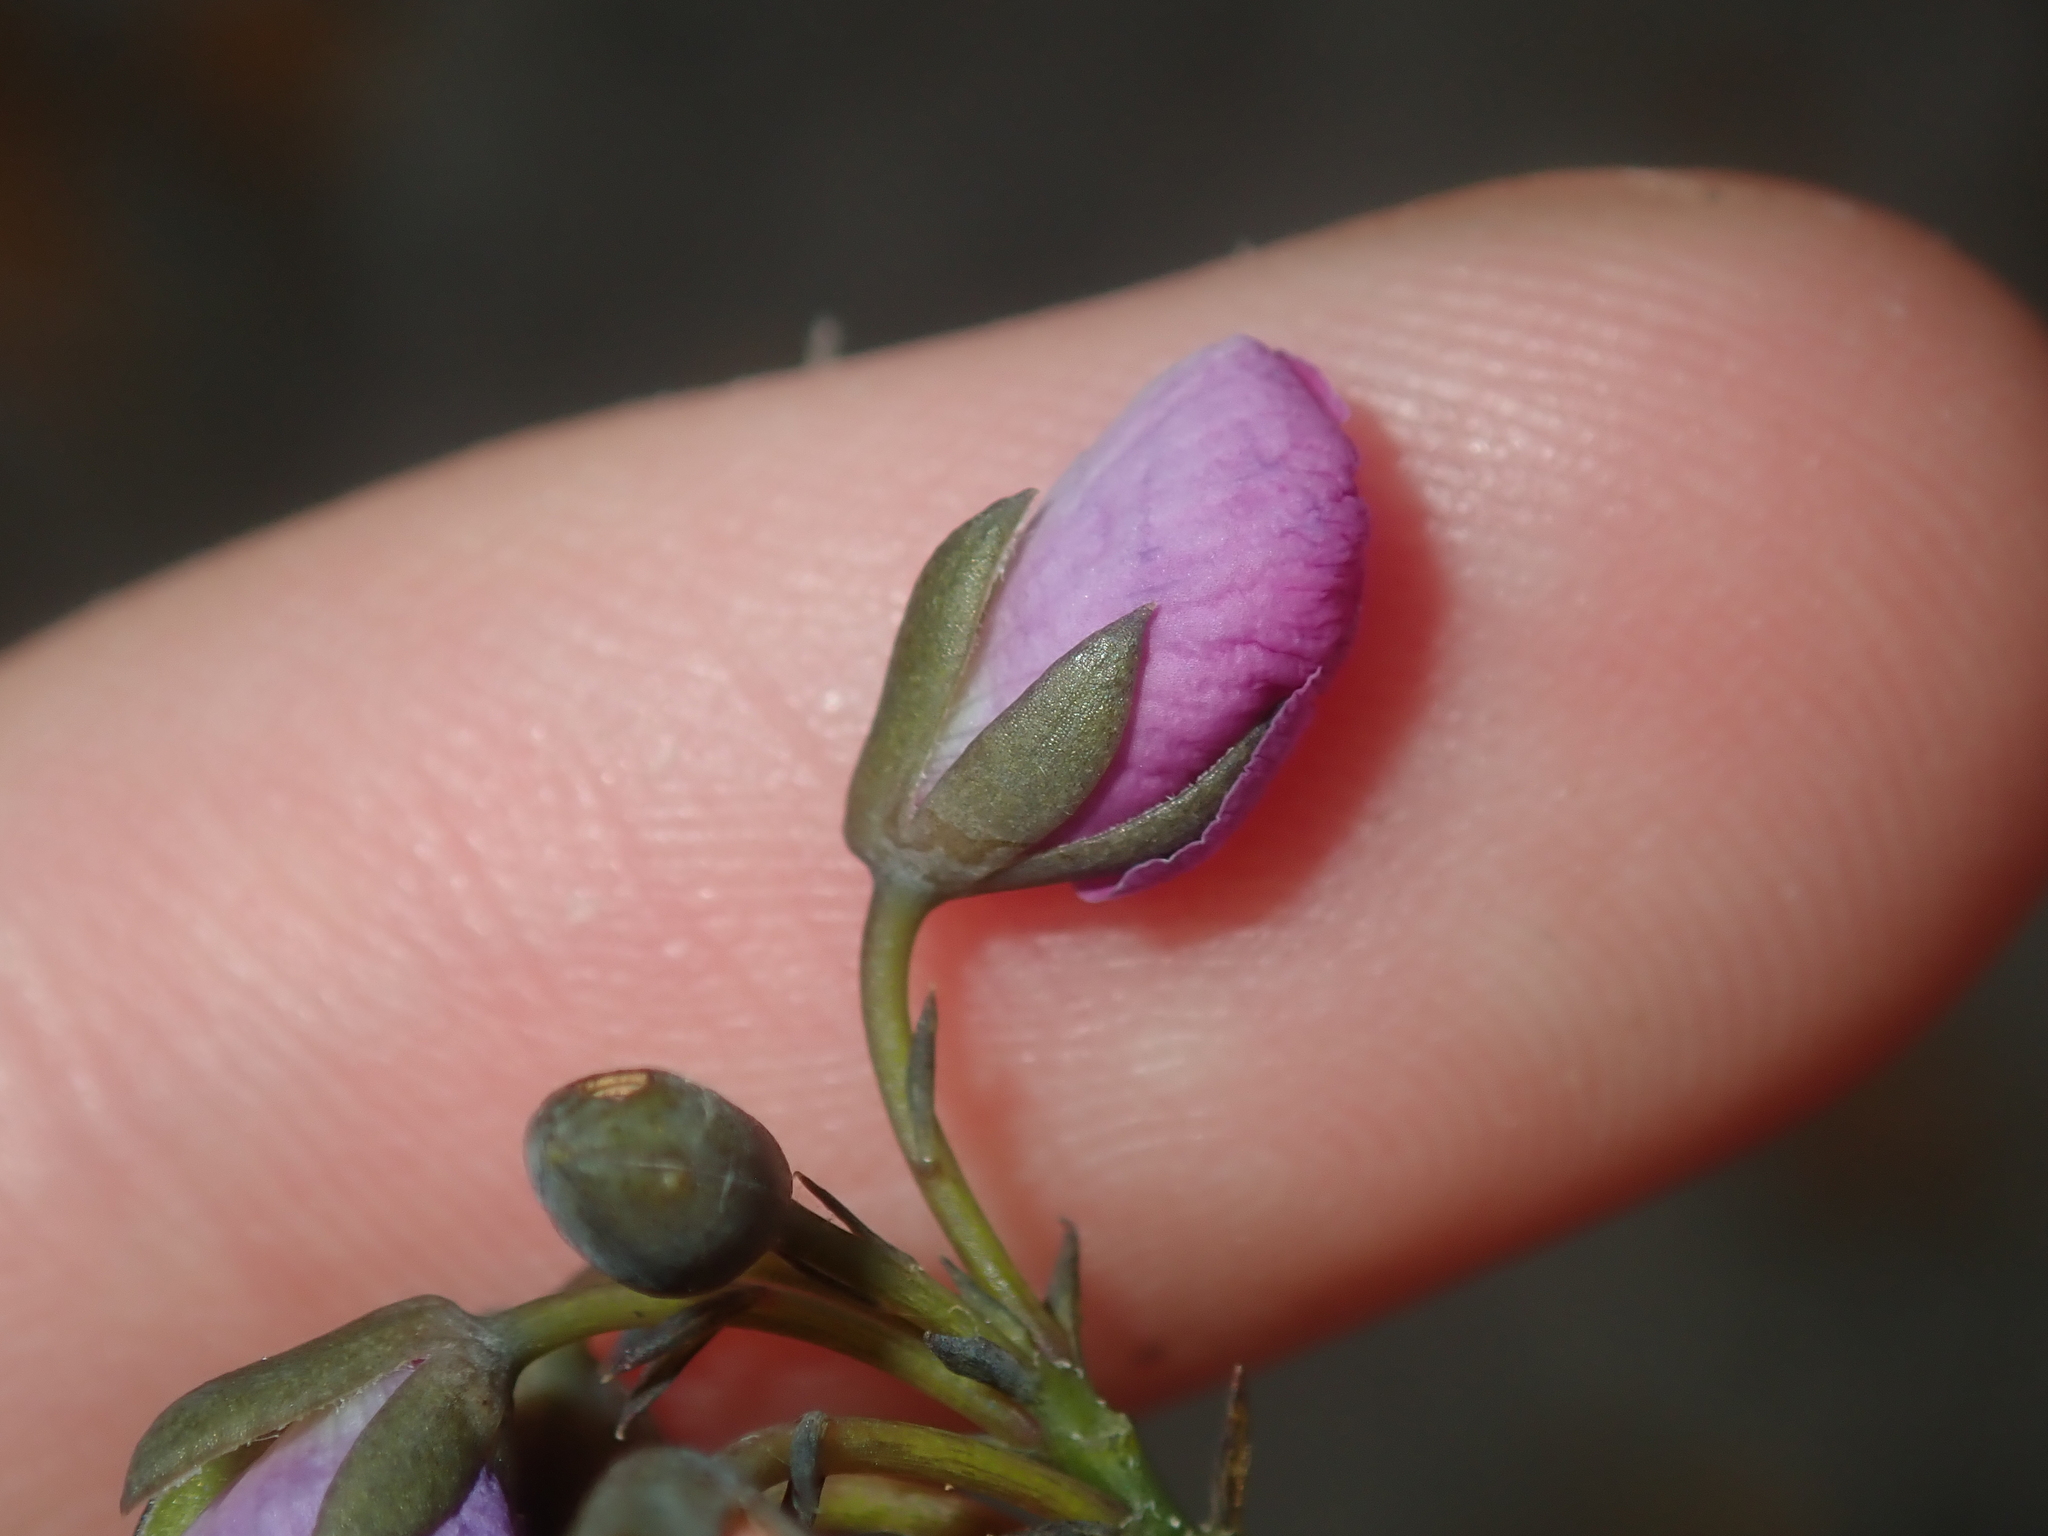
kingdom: Plantae
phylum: Tracheophyta
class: Magnoliopsida
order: Fabales
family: Fabaceae
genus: Gompholobium
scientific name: Gompholobium knightianum
